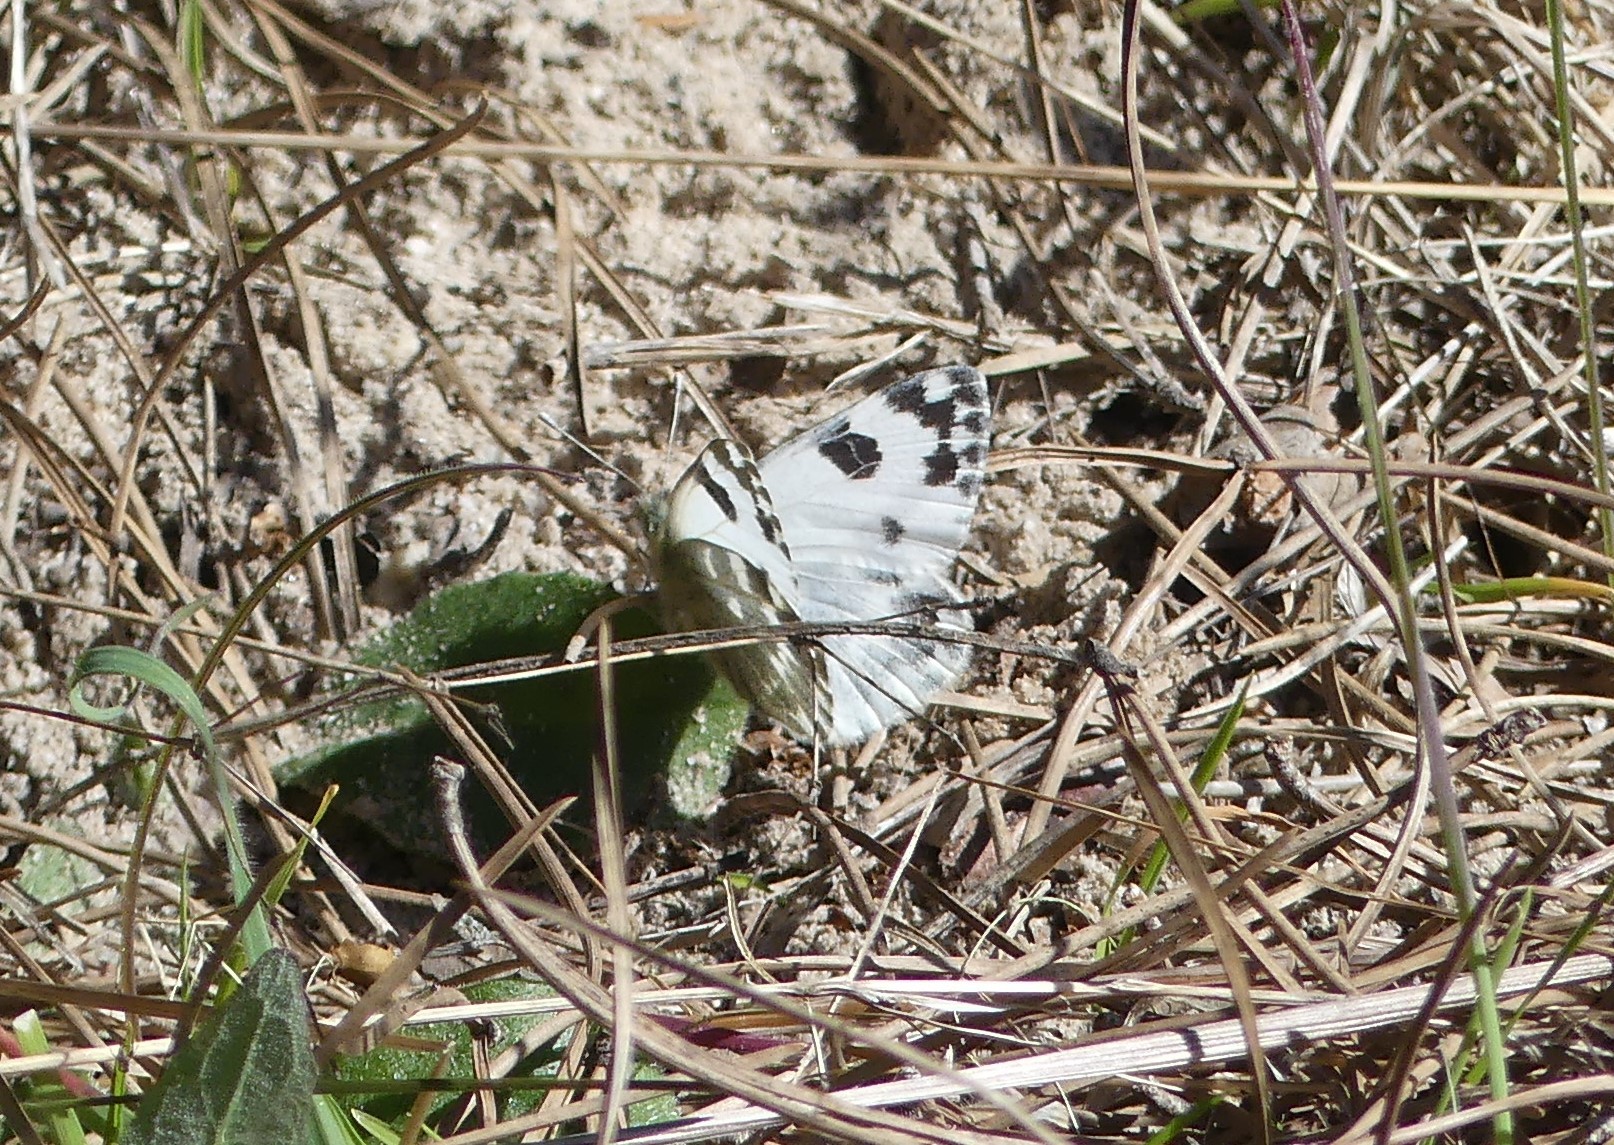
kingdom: Animalia
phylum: Arthropoda
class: Insecta
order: Lepidoptera
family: Pieridae
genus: Pontia
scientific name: Pontia daplidice
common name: Bath white
